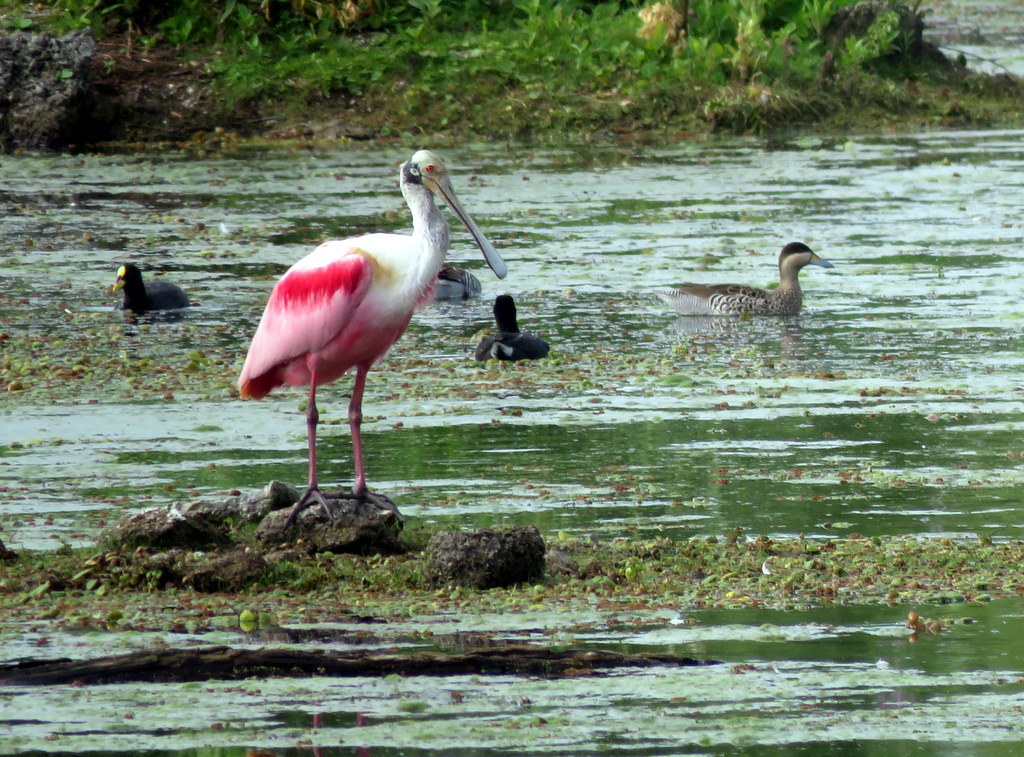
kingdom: Animalia
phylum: Chordata
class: Aves
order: Pelecaniformes
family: Threskiornithidae
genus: Platalea
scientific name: Platalea ajaja
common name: Roseate spoonbill
